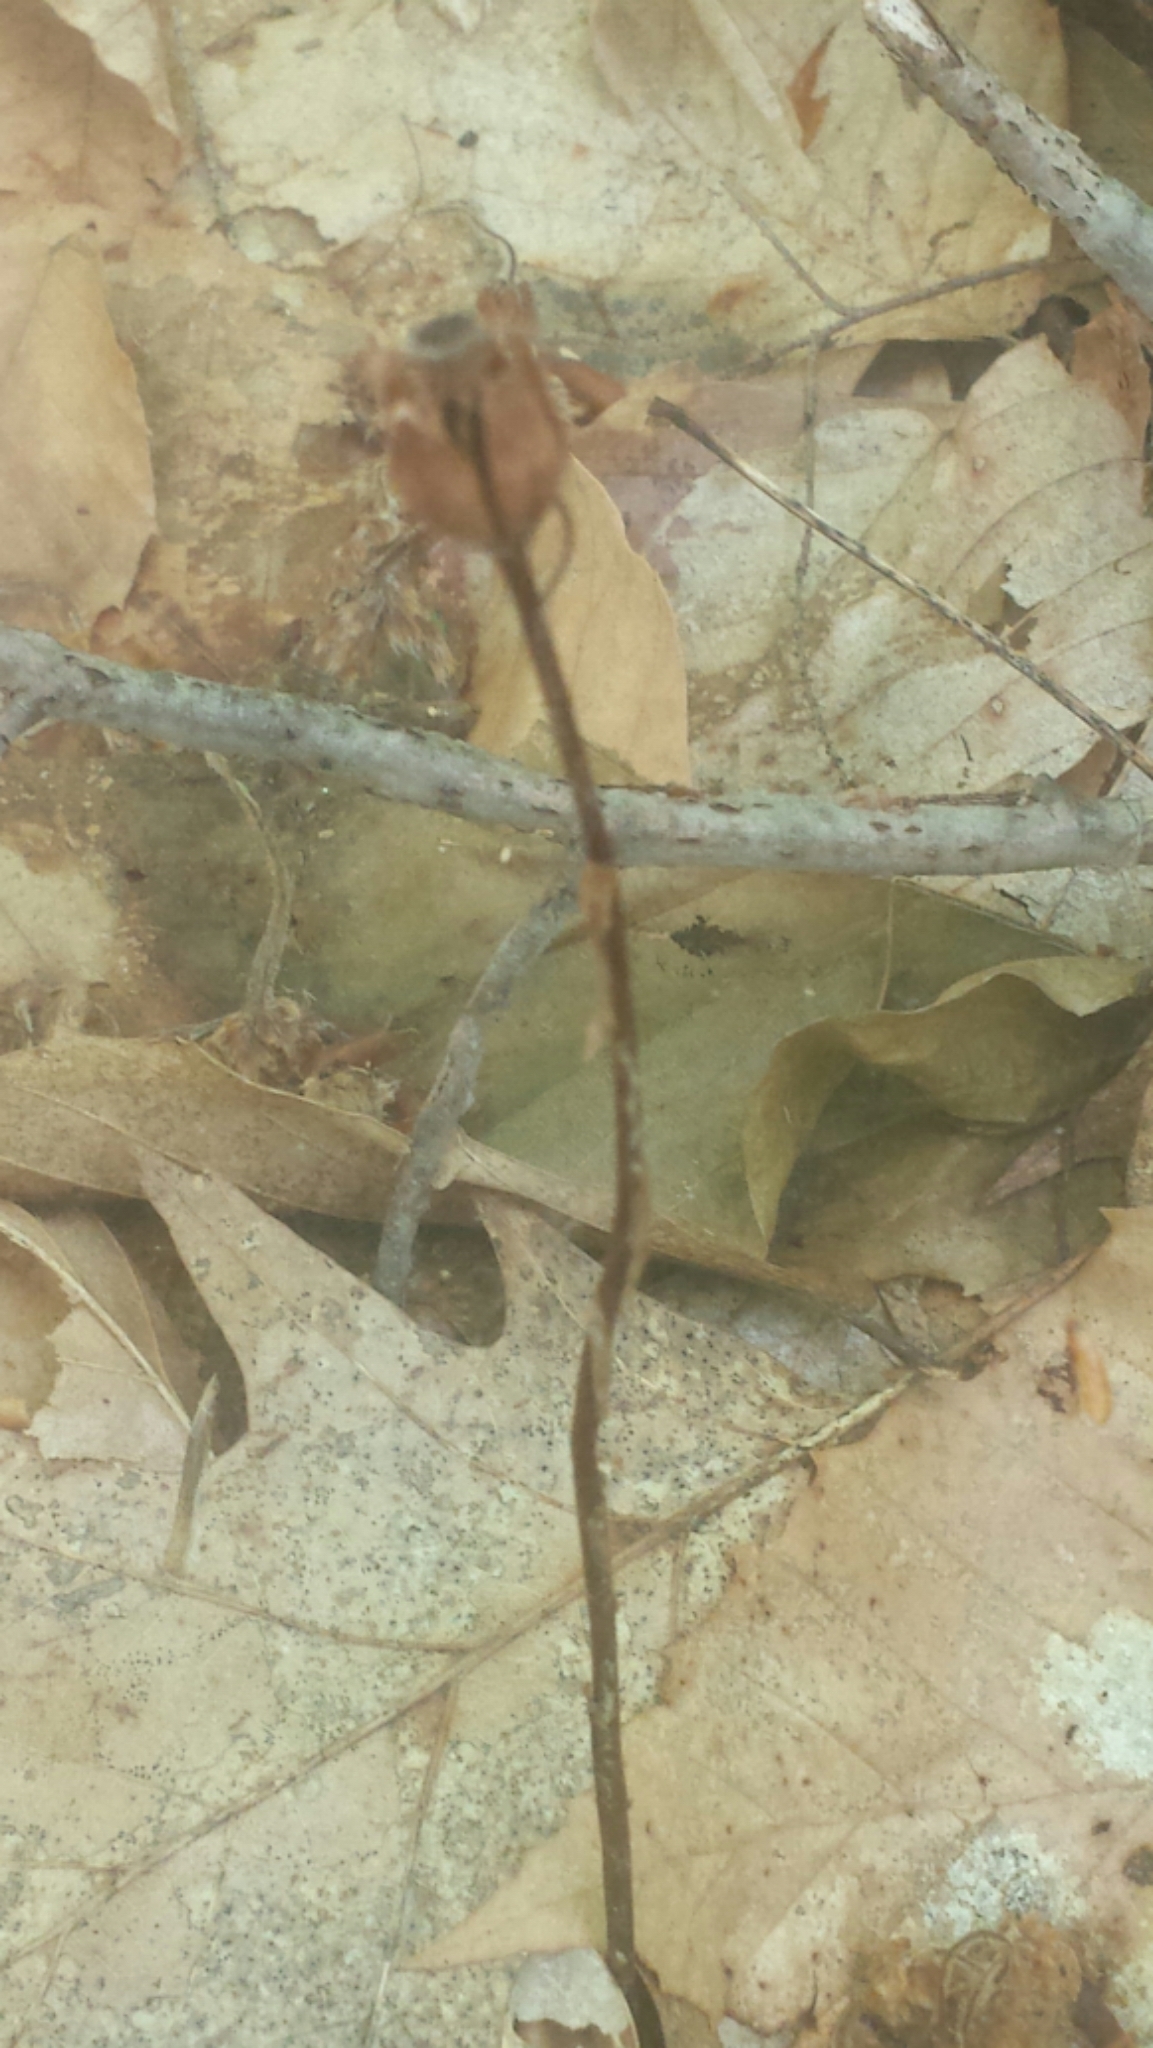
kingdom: Plantae
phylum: Tracheophyta
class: Magnoliopsida
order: Ericales
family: Ericaceae
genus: Monotropa
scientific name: Monotropa uniflora
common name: Convulsion root
